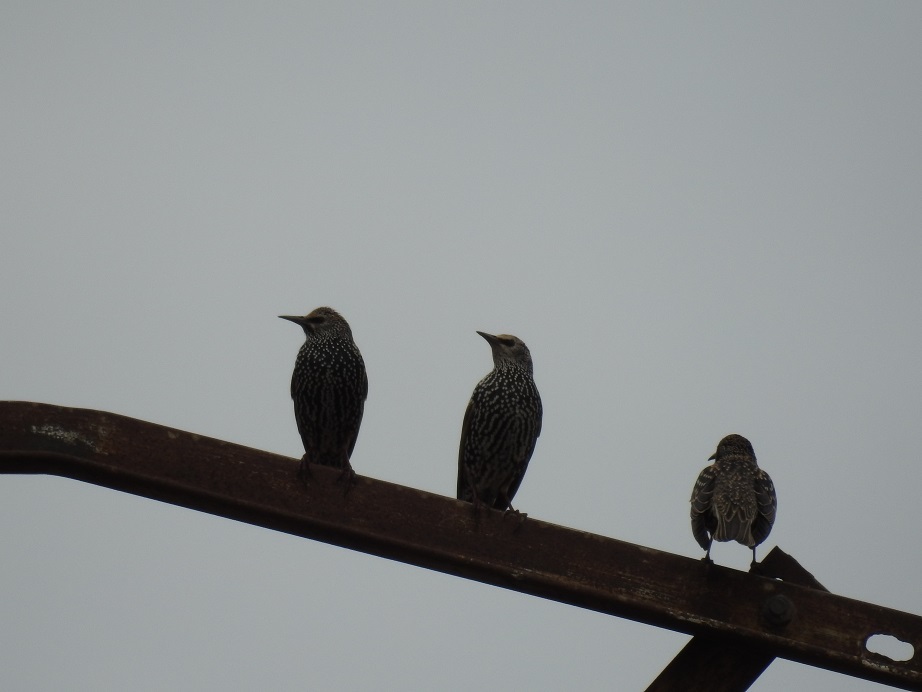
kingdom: Animalia
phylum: Chordata
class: Aves
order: Passeriformes
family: Sturnidae
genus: Sturnus
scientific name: Sturnus vulgaris
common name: Common starling
